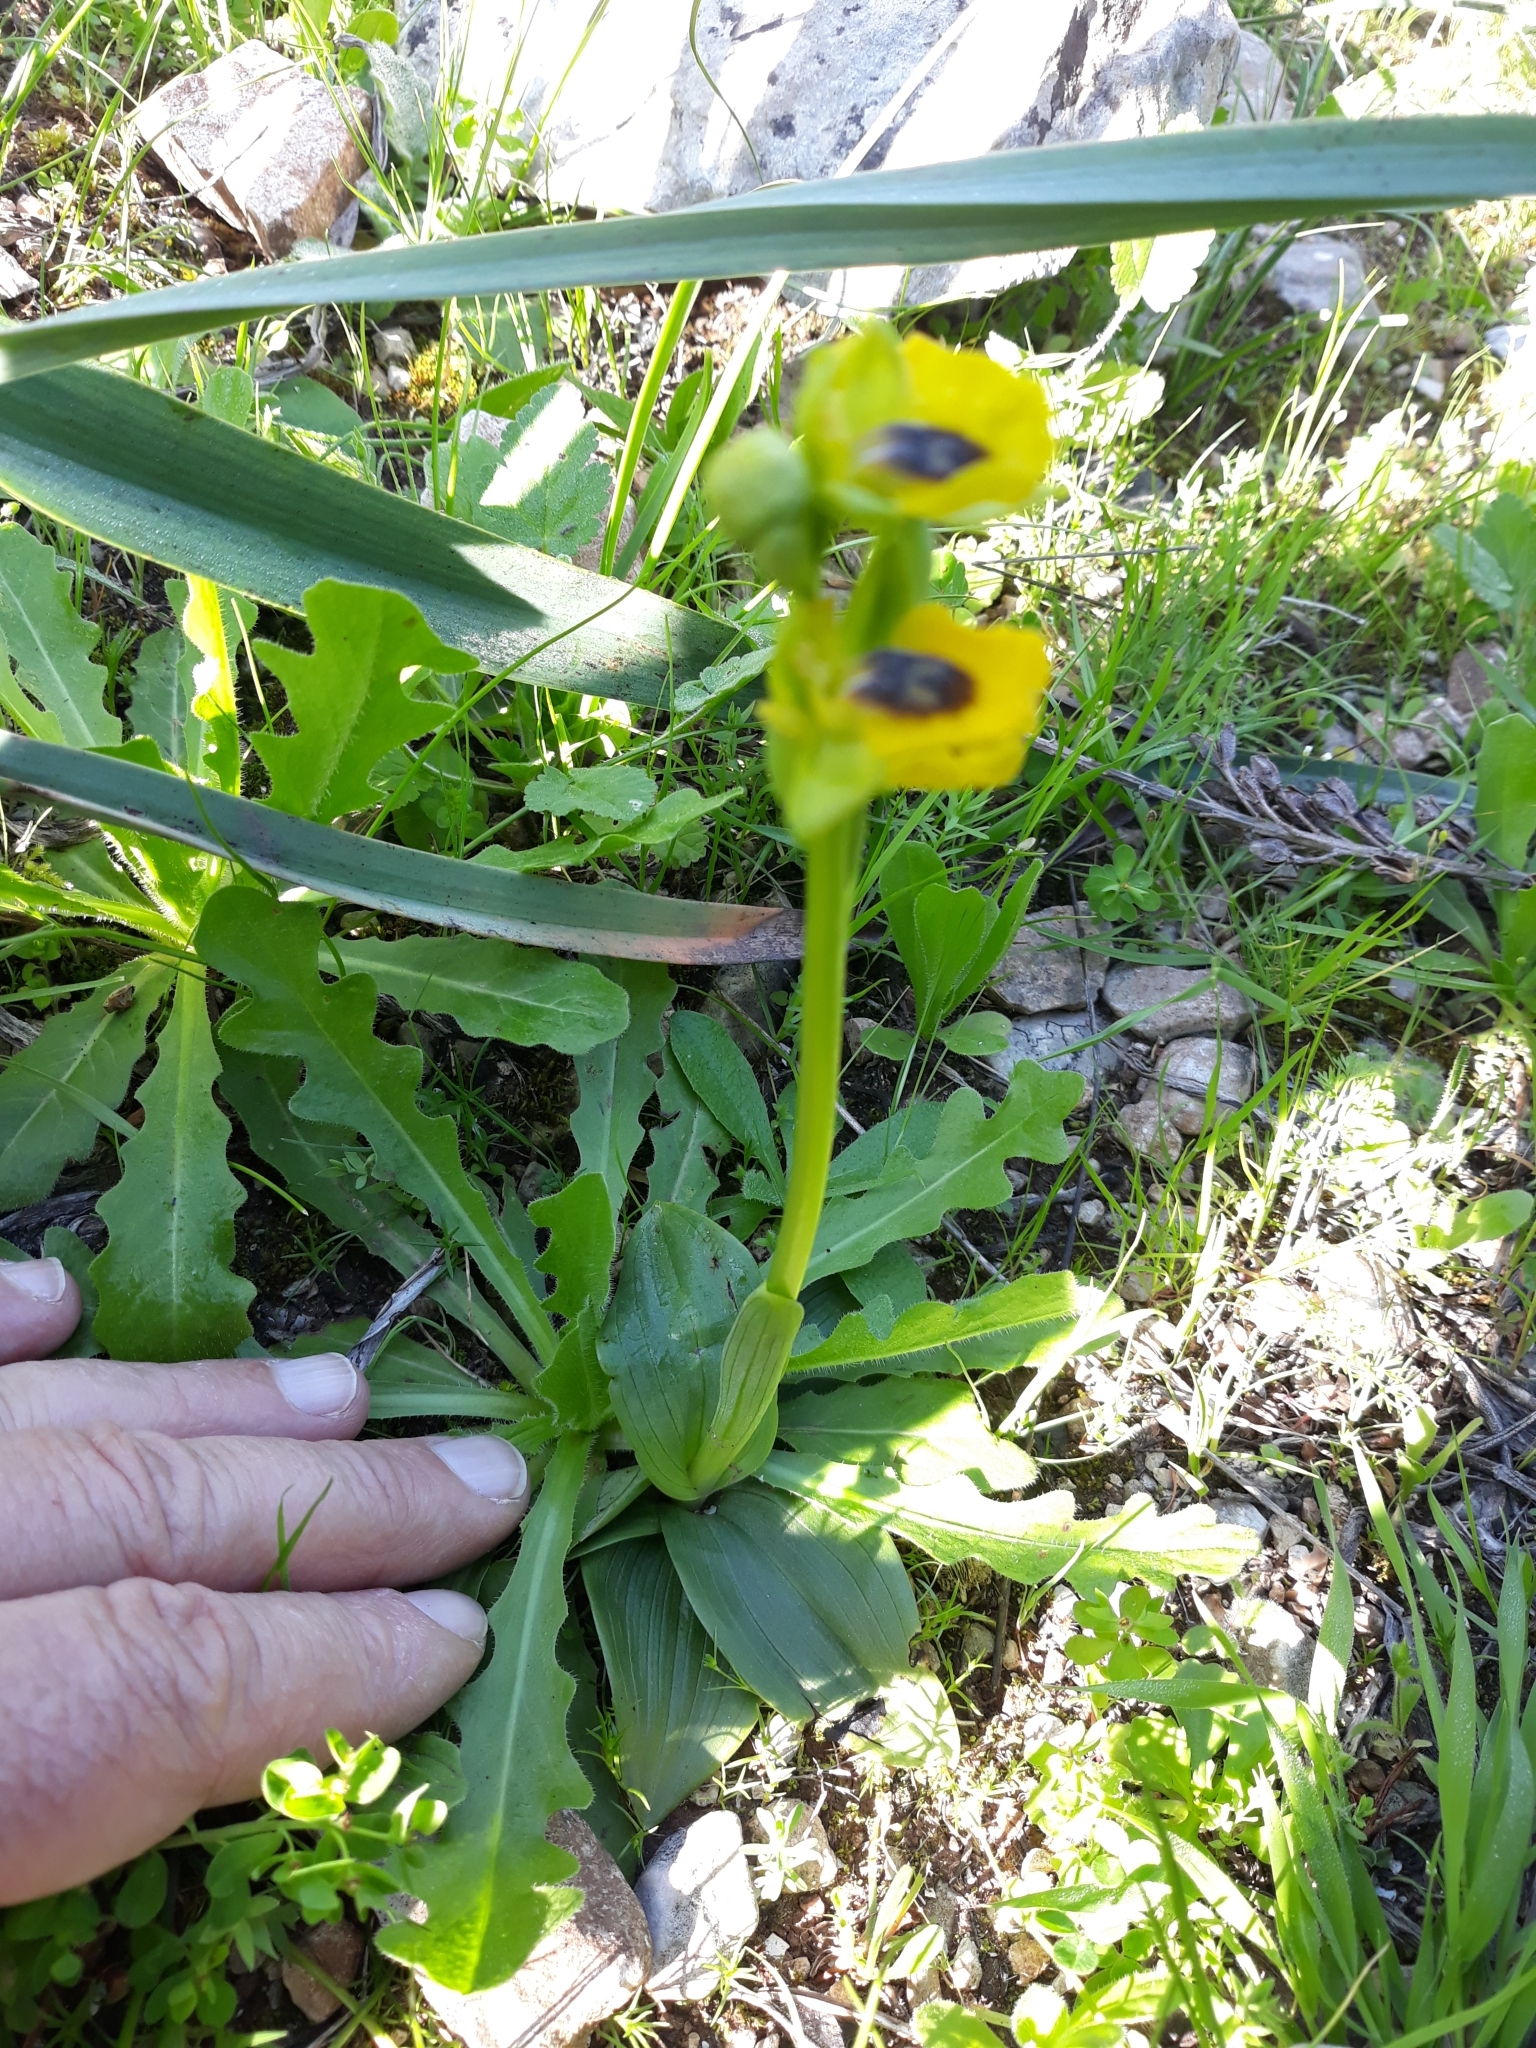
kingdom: Plantae
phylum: Tracheophyta
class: Liliopsida
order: Asparagales
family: Orchidaceae
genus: Ophrys
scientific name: Ophrys lutea
